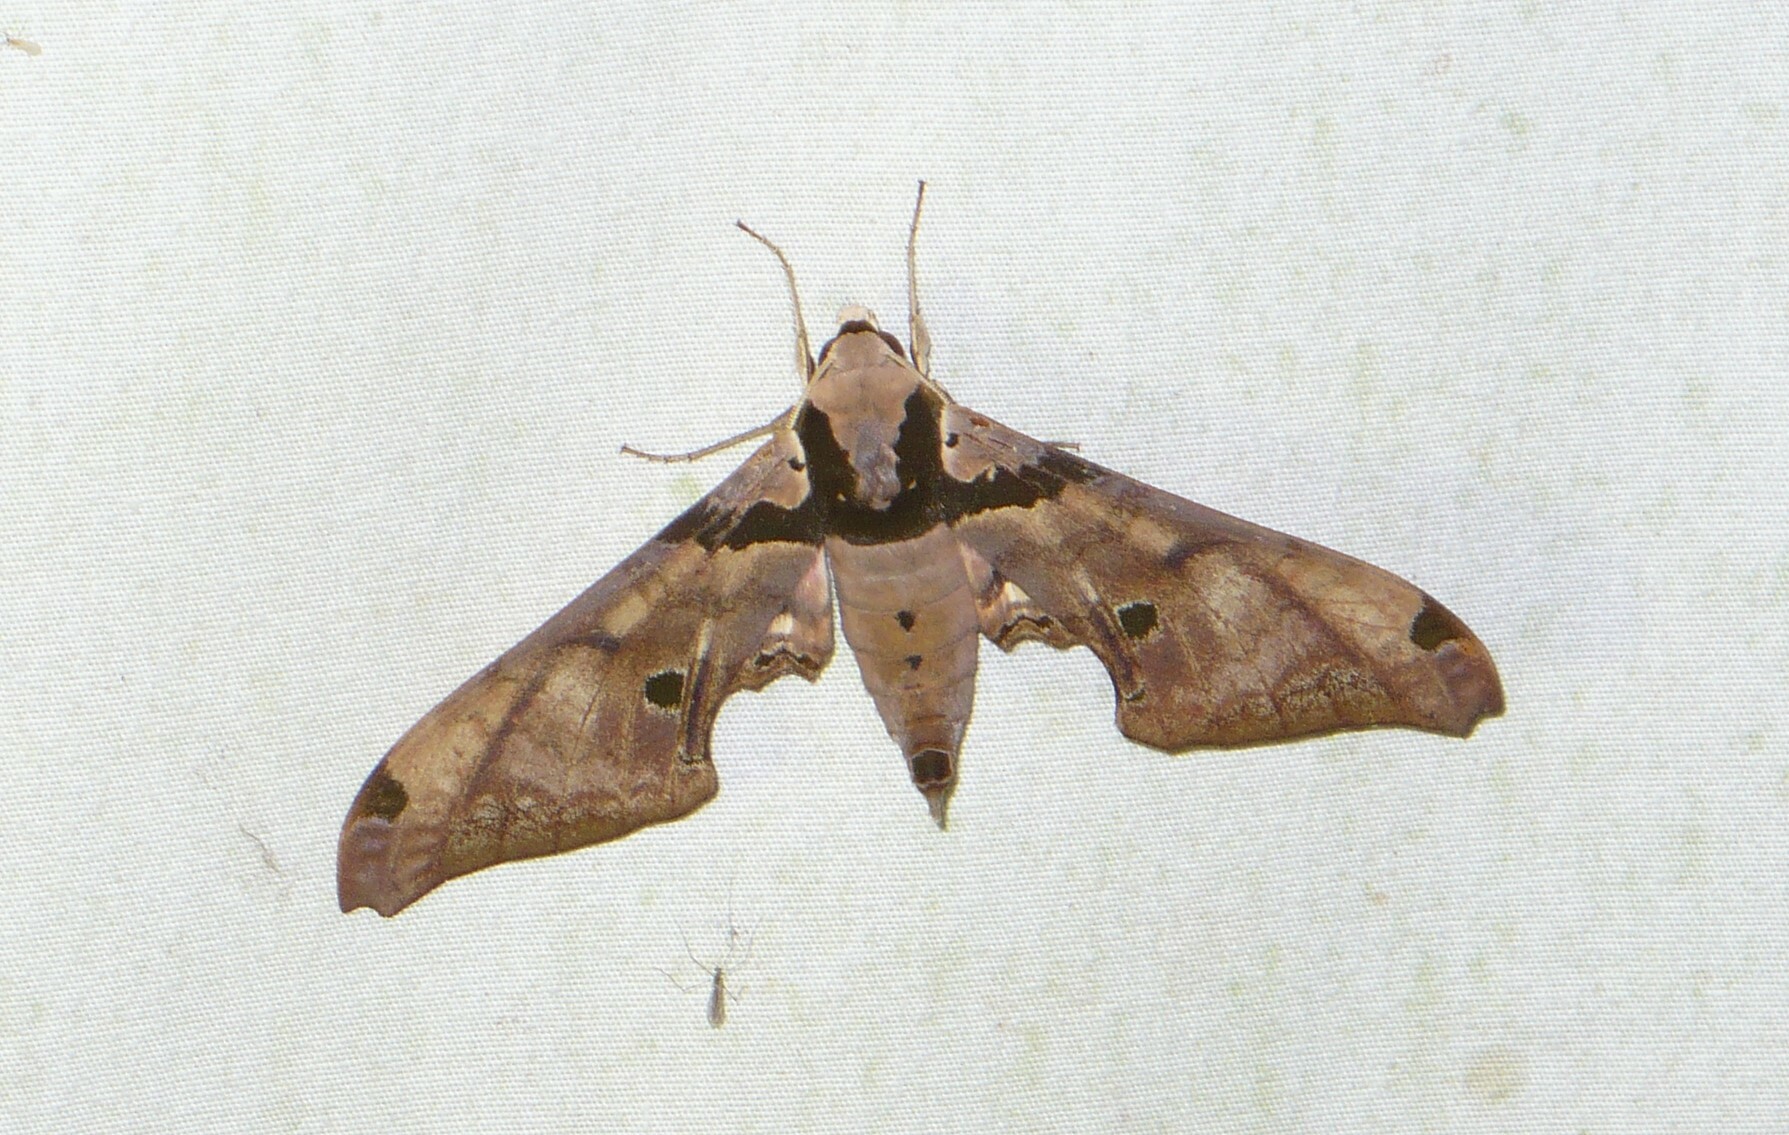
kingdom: Animalia
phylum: Arthropoda
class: Insecta
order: Lepidoptera
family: Sphingidae
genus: Adhemarius
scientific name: Adhemarius gannascus
